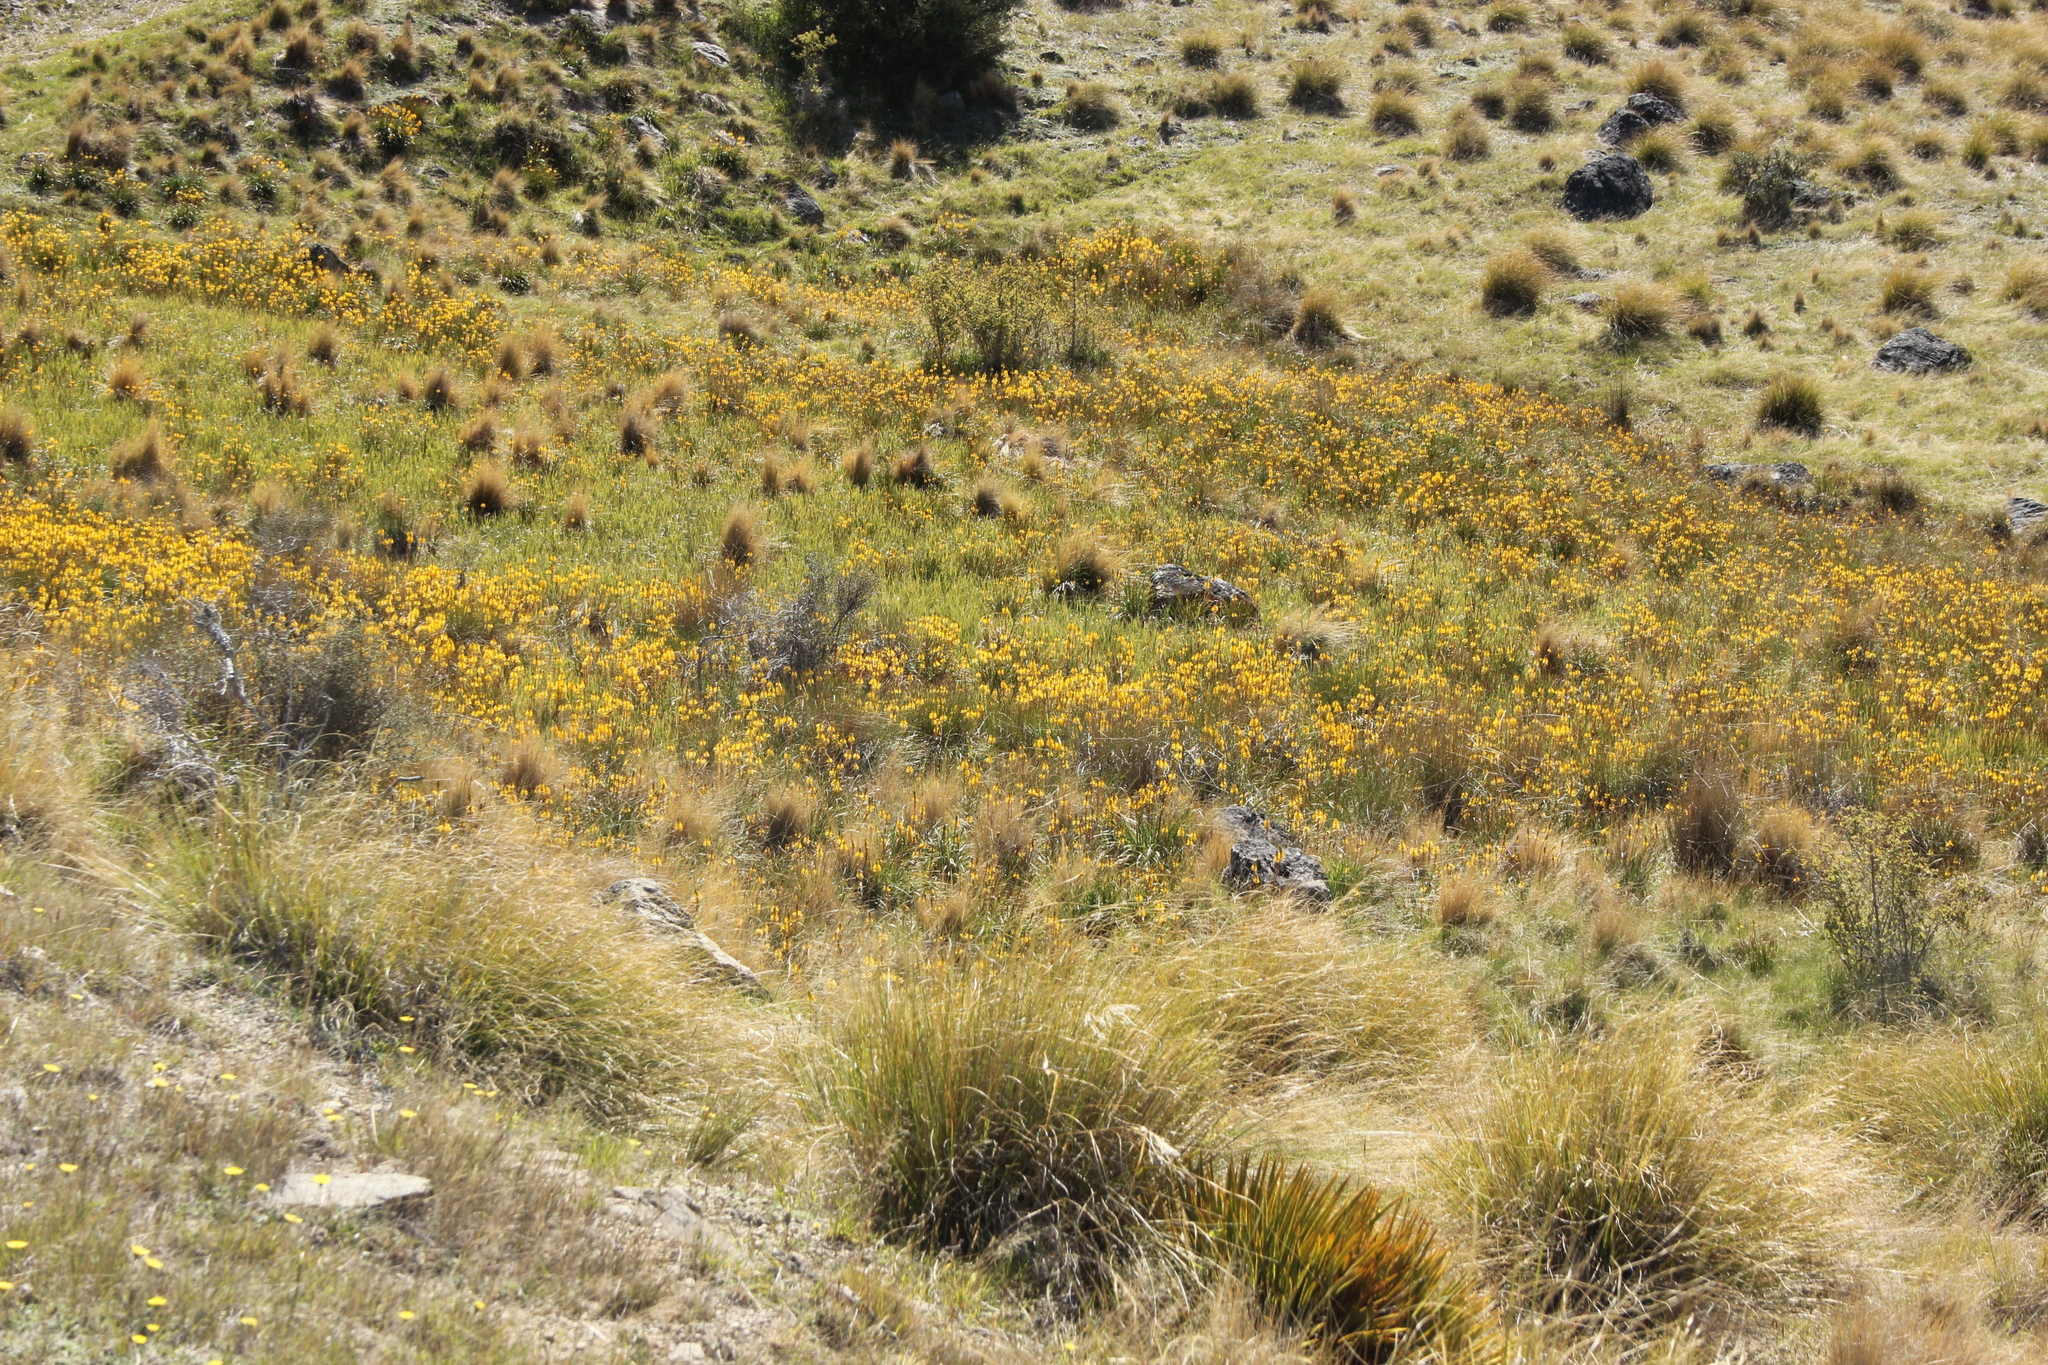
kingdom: Plantae
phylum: Tracheophyta
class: Liliopsida
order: Asparagales
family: Asphodelaceae
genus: Bulbinella
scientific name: Bulbinella angustifolia
